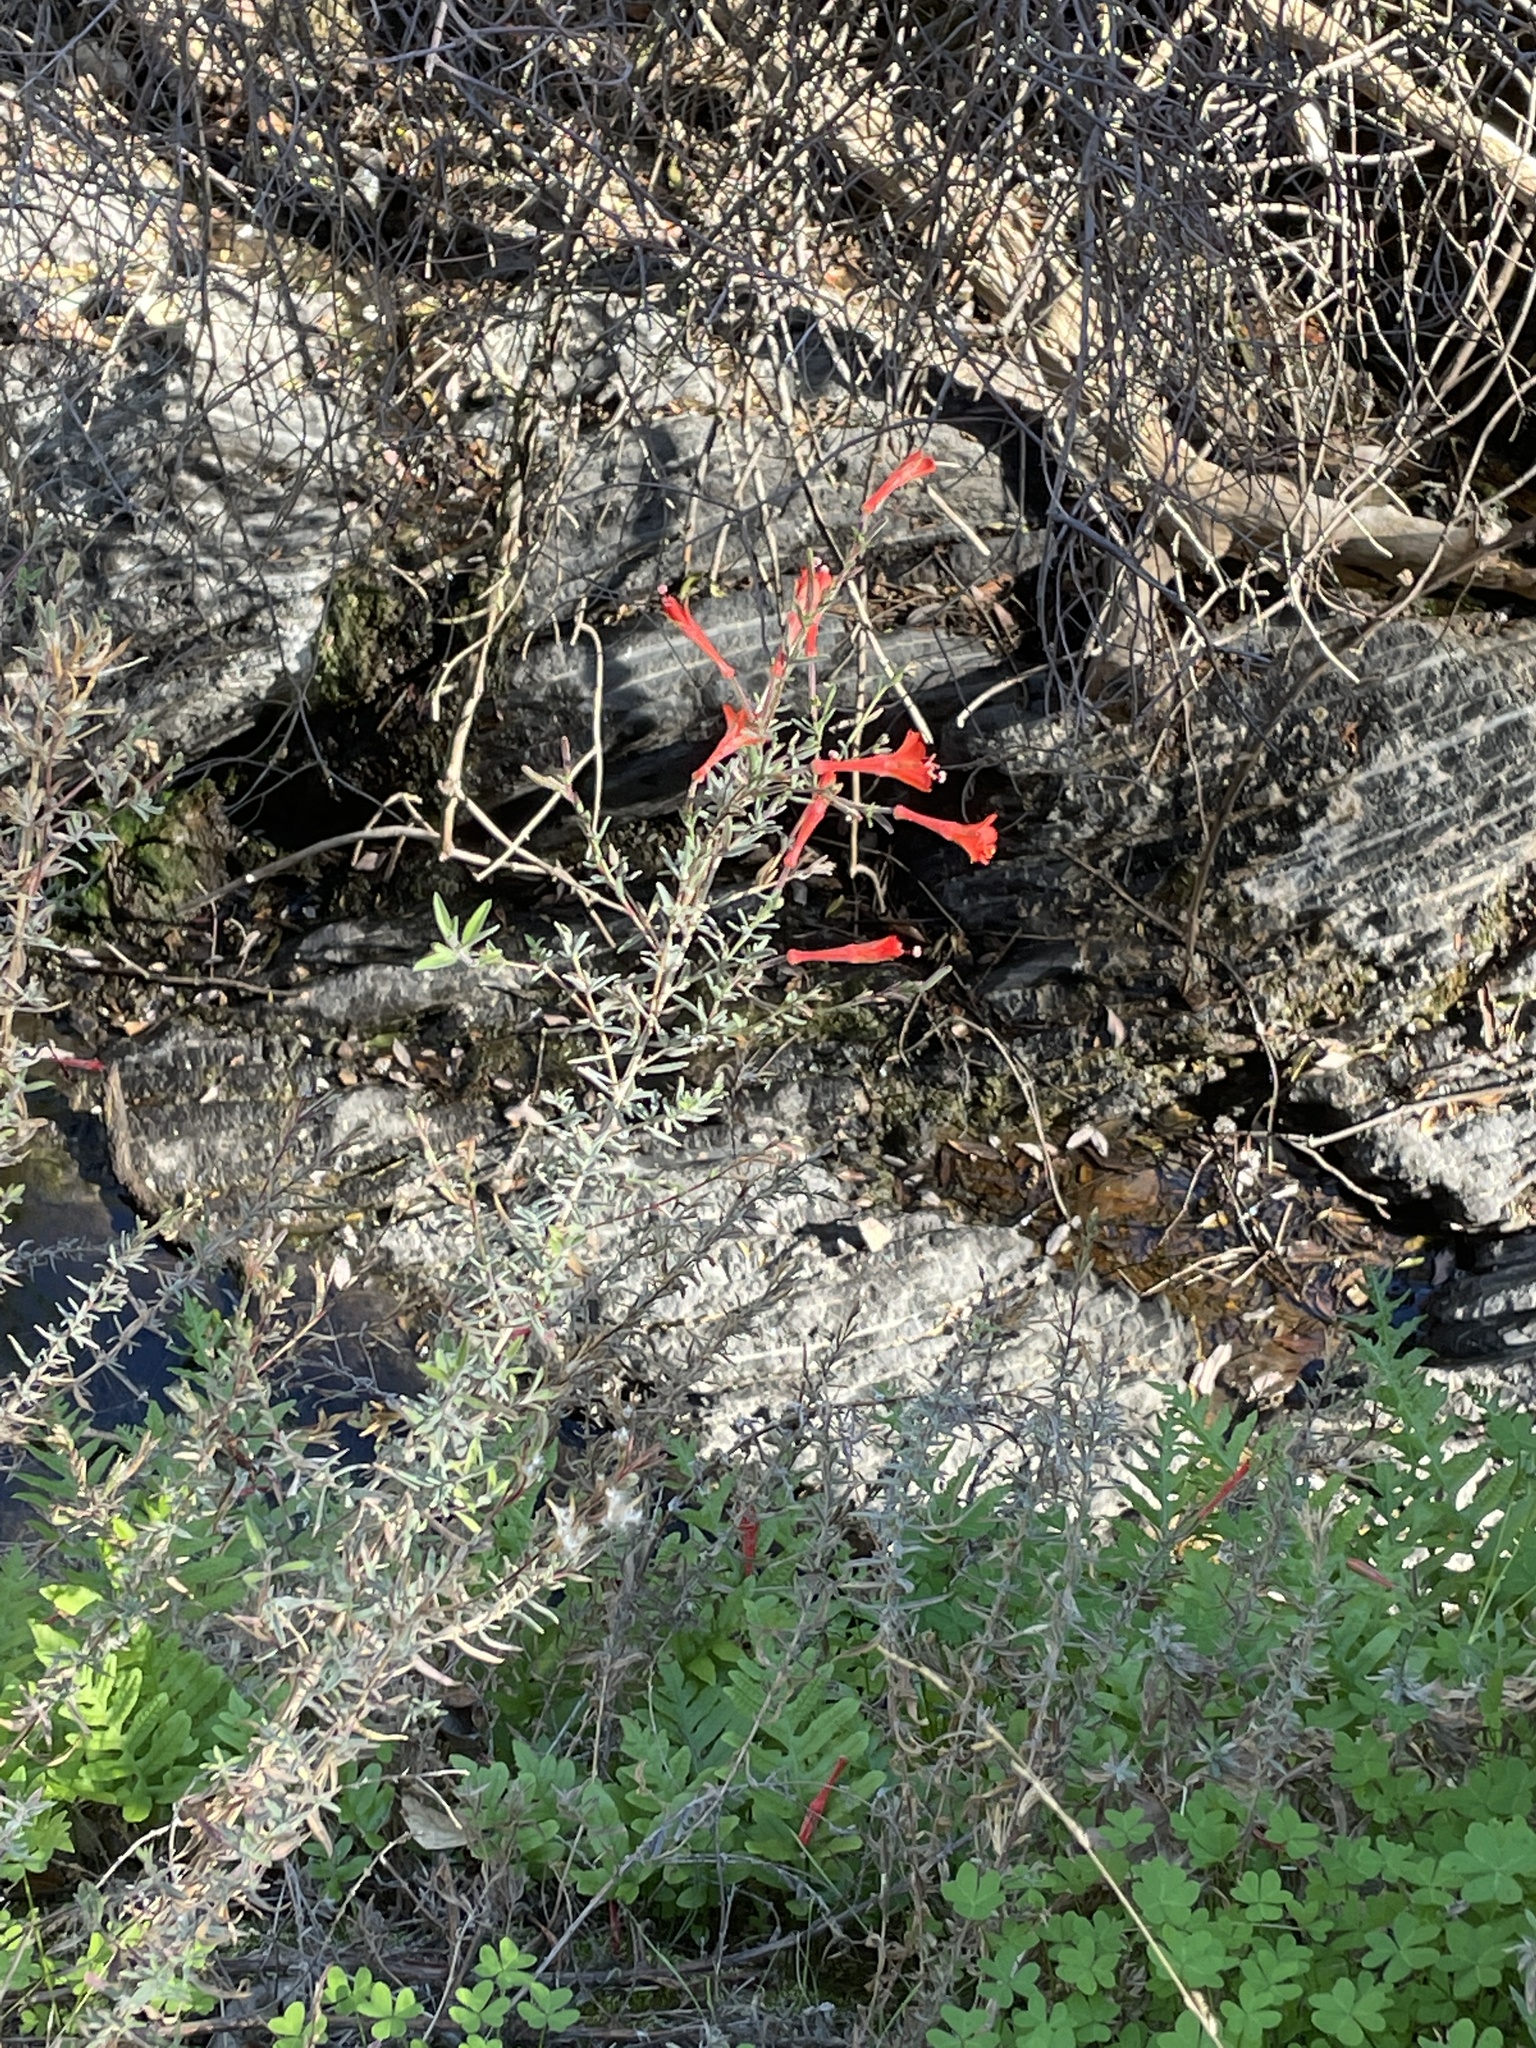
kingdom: Plantae
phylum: Tracheophyta
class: Magnoliopsida
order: Myrtales
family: Onagraceae
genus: Epilobium
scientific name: Epilobium canum
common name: California-fuchsia
